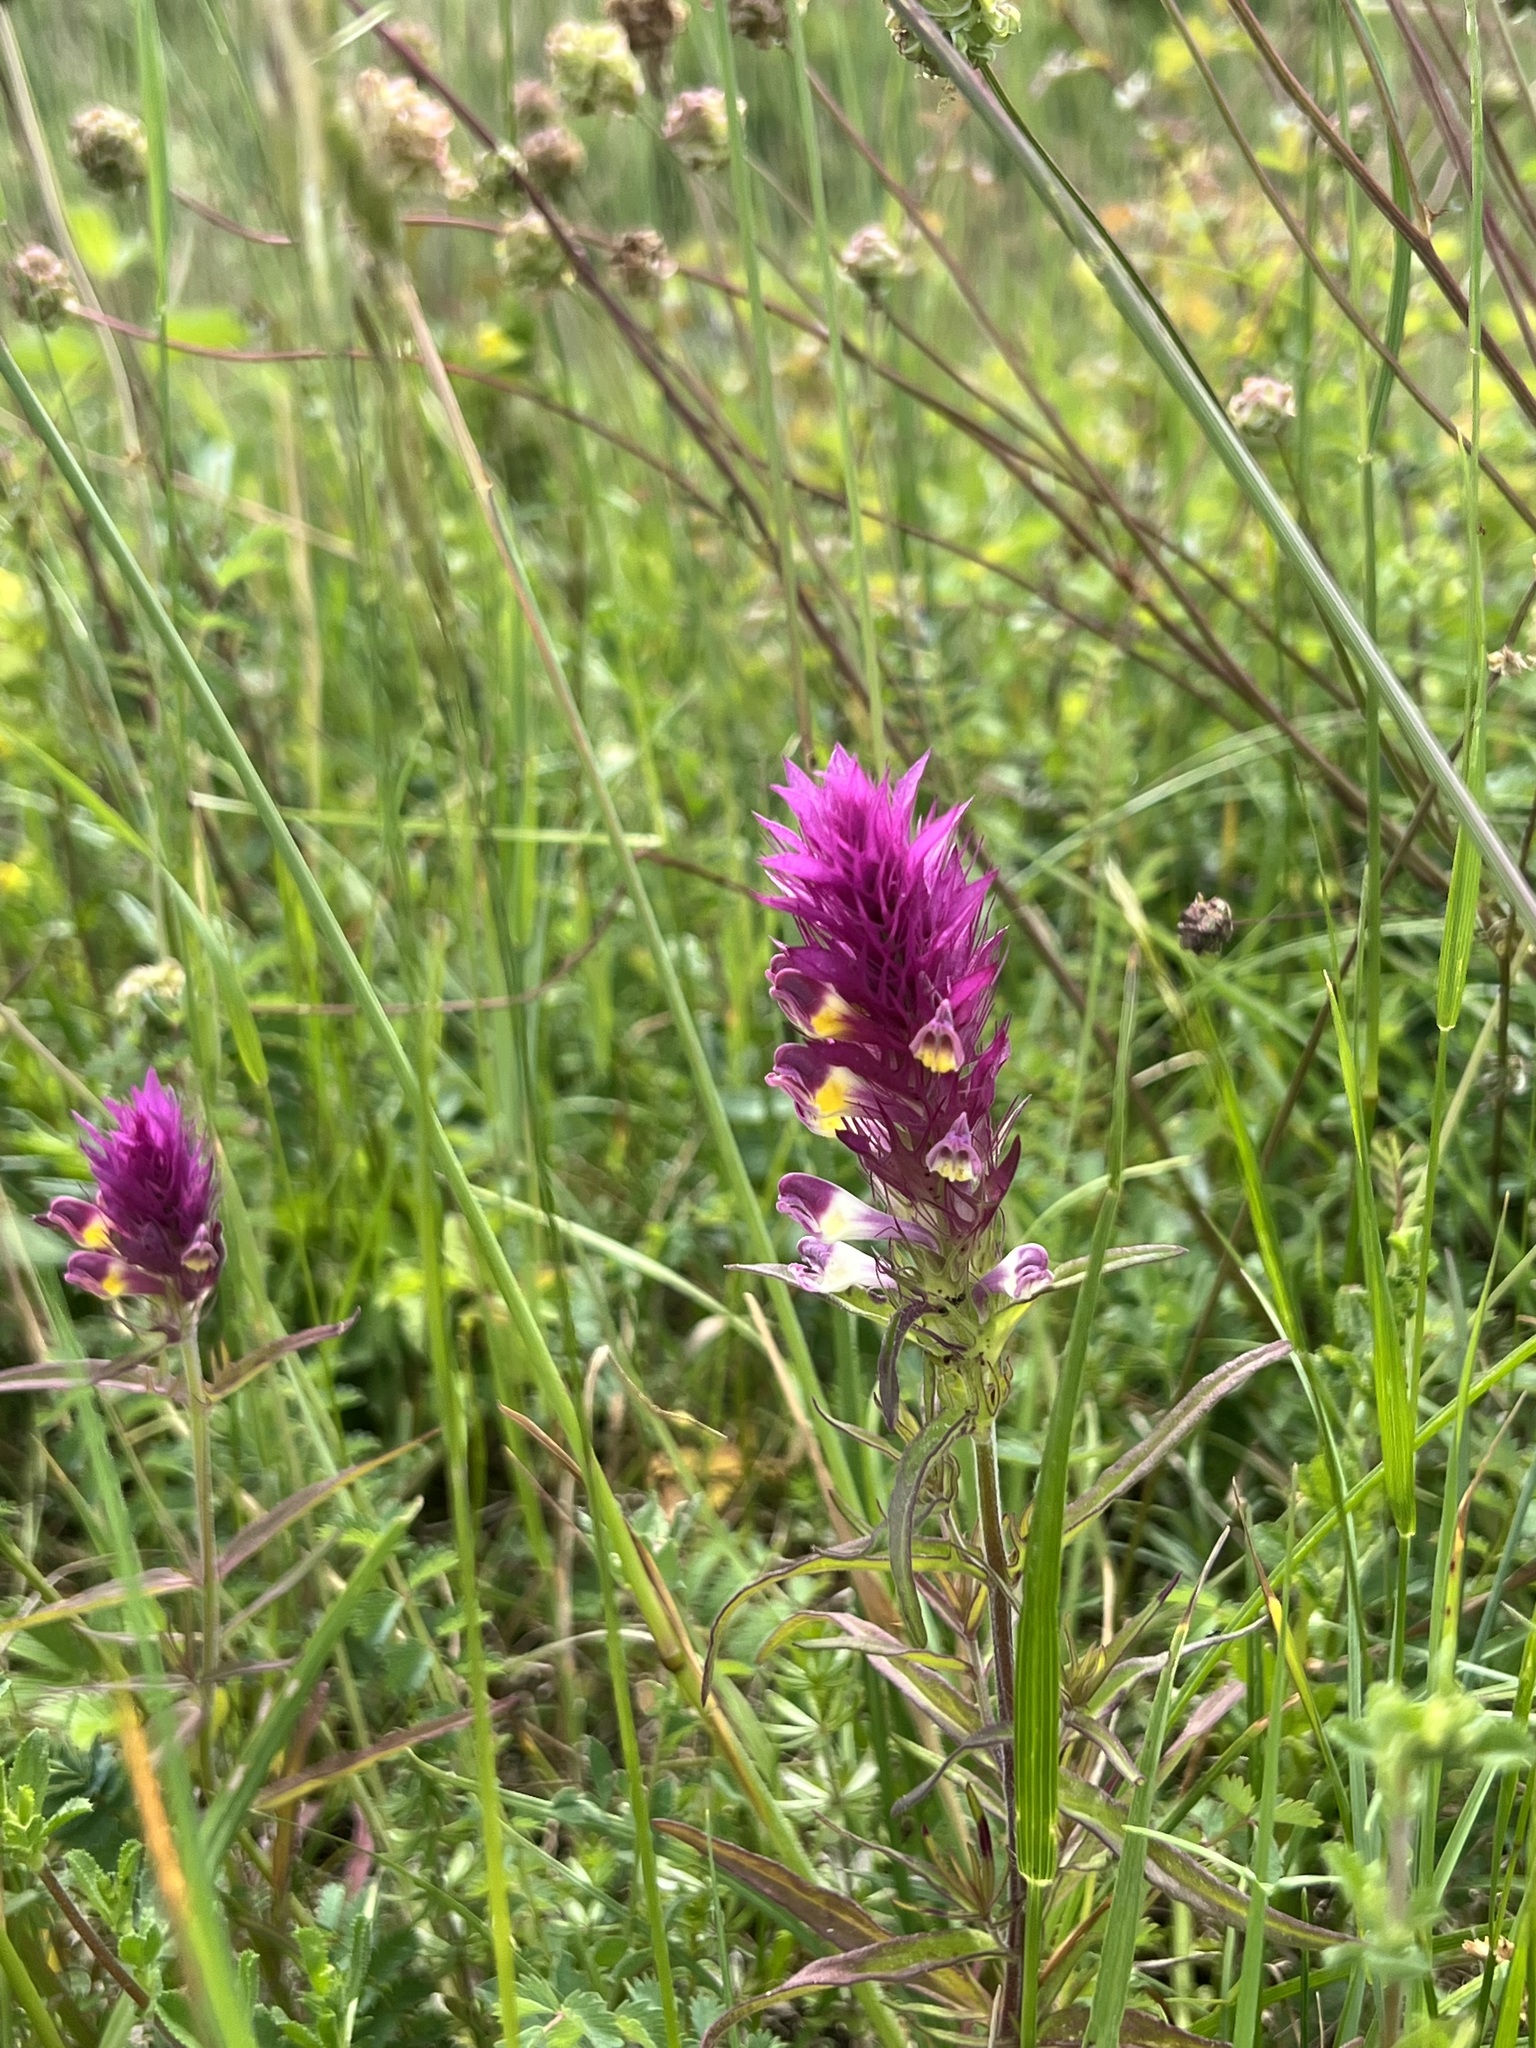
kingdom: Plantae
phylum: Tracheophyta
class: Magnoliopsida
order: Lamiales
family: Orobanchaceae
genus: Melampyrum
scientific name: Melampyrum arvense
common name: Field cow-wheat
